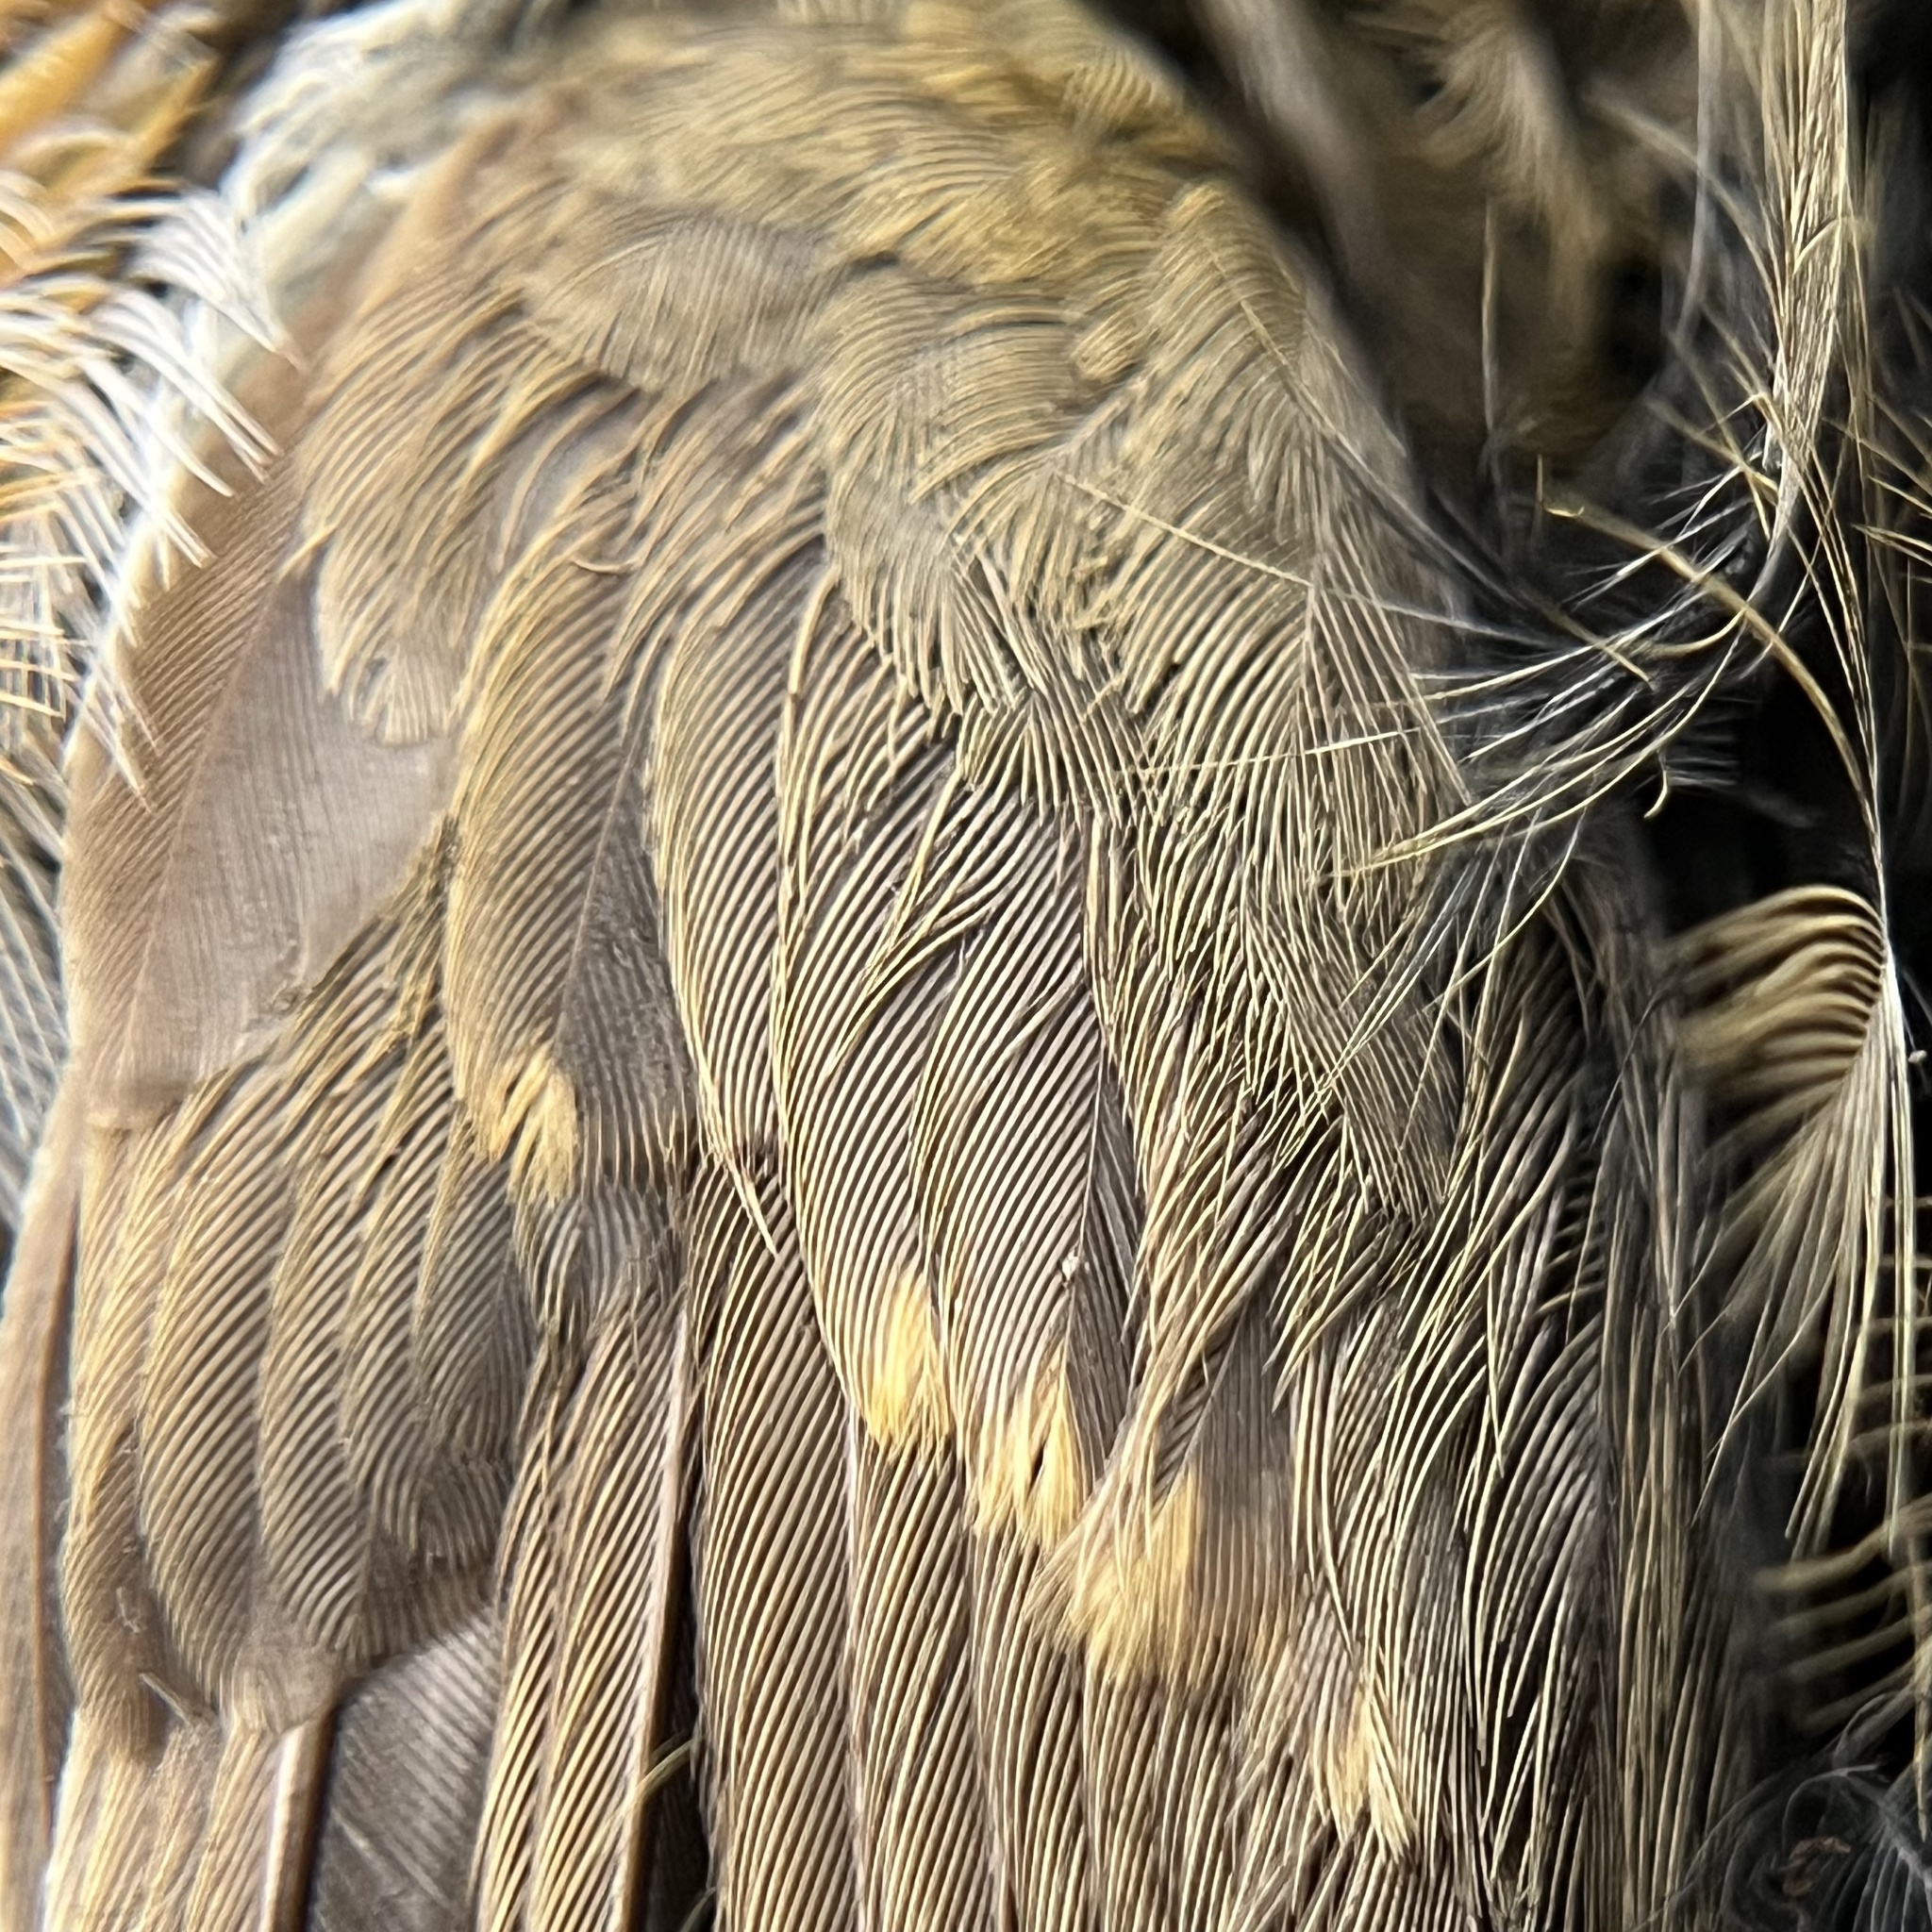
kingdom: Animalia
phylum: Chordata
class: Aves
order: Passeriformes
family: Muscicapidae
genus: Erithacus
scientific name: Erithacus rubecula
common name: European robin
